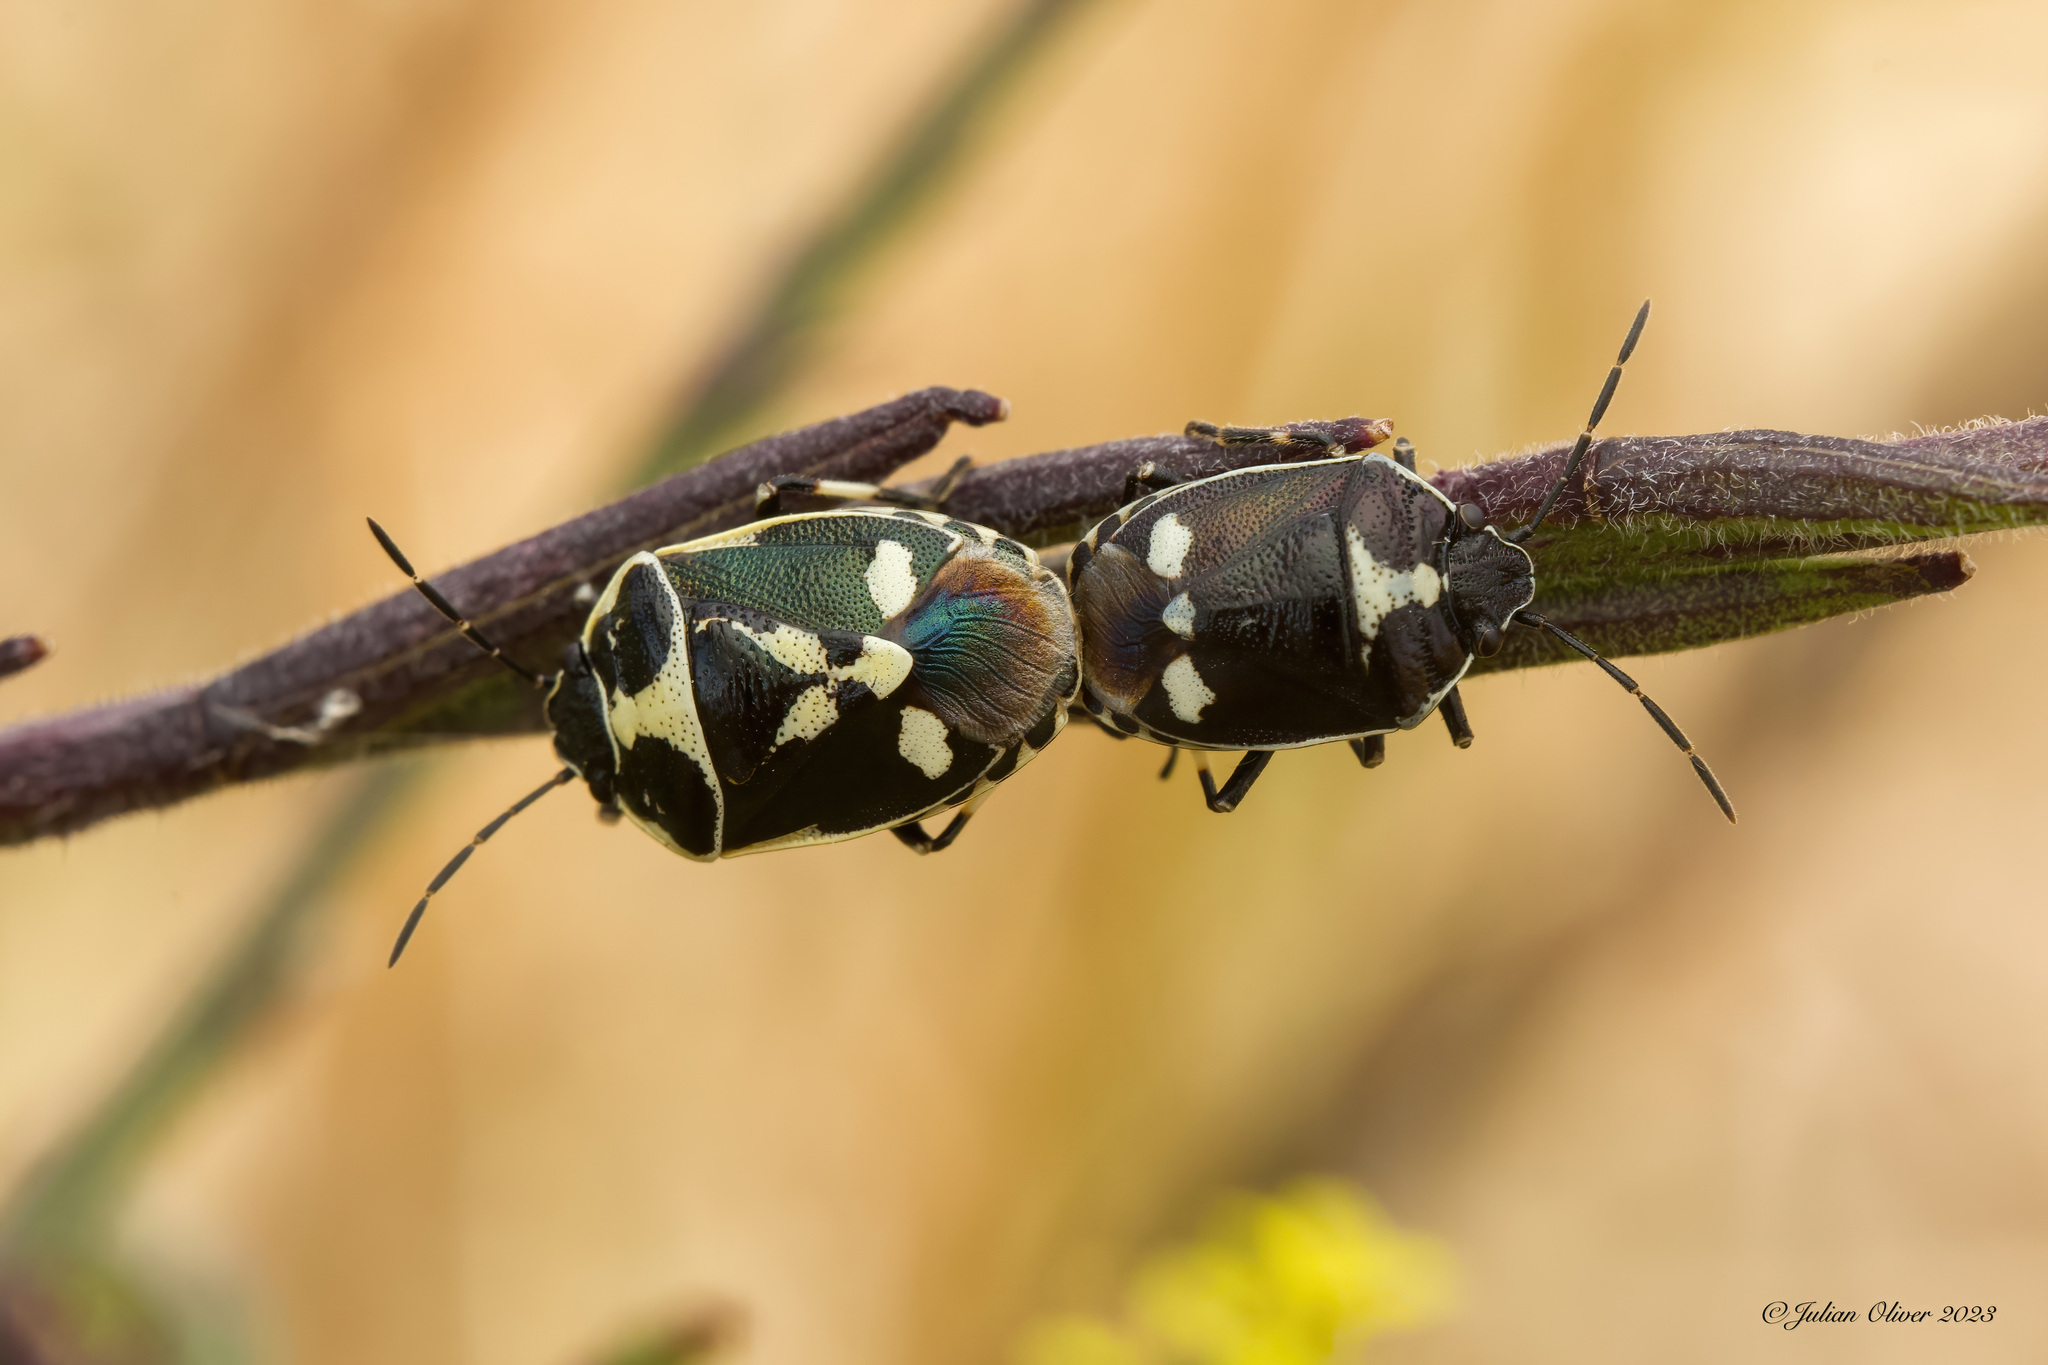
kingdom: Animalia
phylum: Arthropoda
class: Insecta
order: Hemiptera
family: Pentatomidae
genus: Eurydema
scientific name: Eurydema oleracea
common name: Cabbage bug
